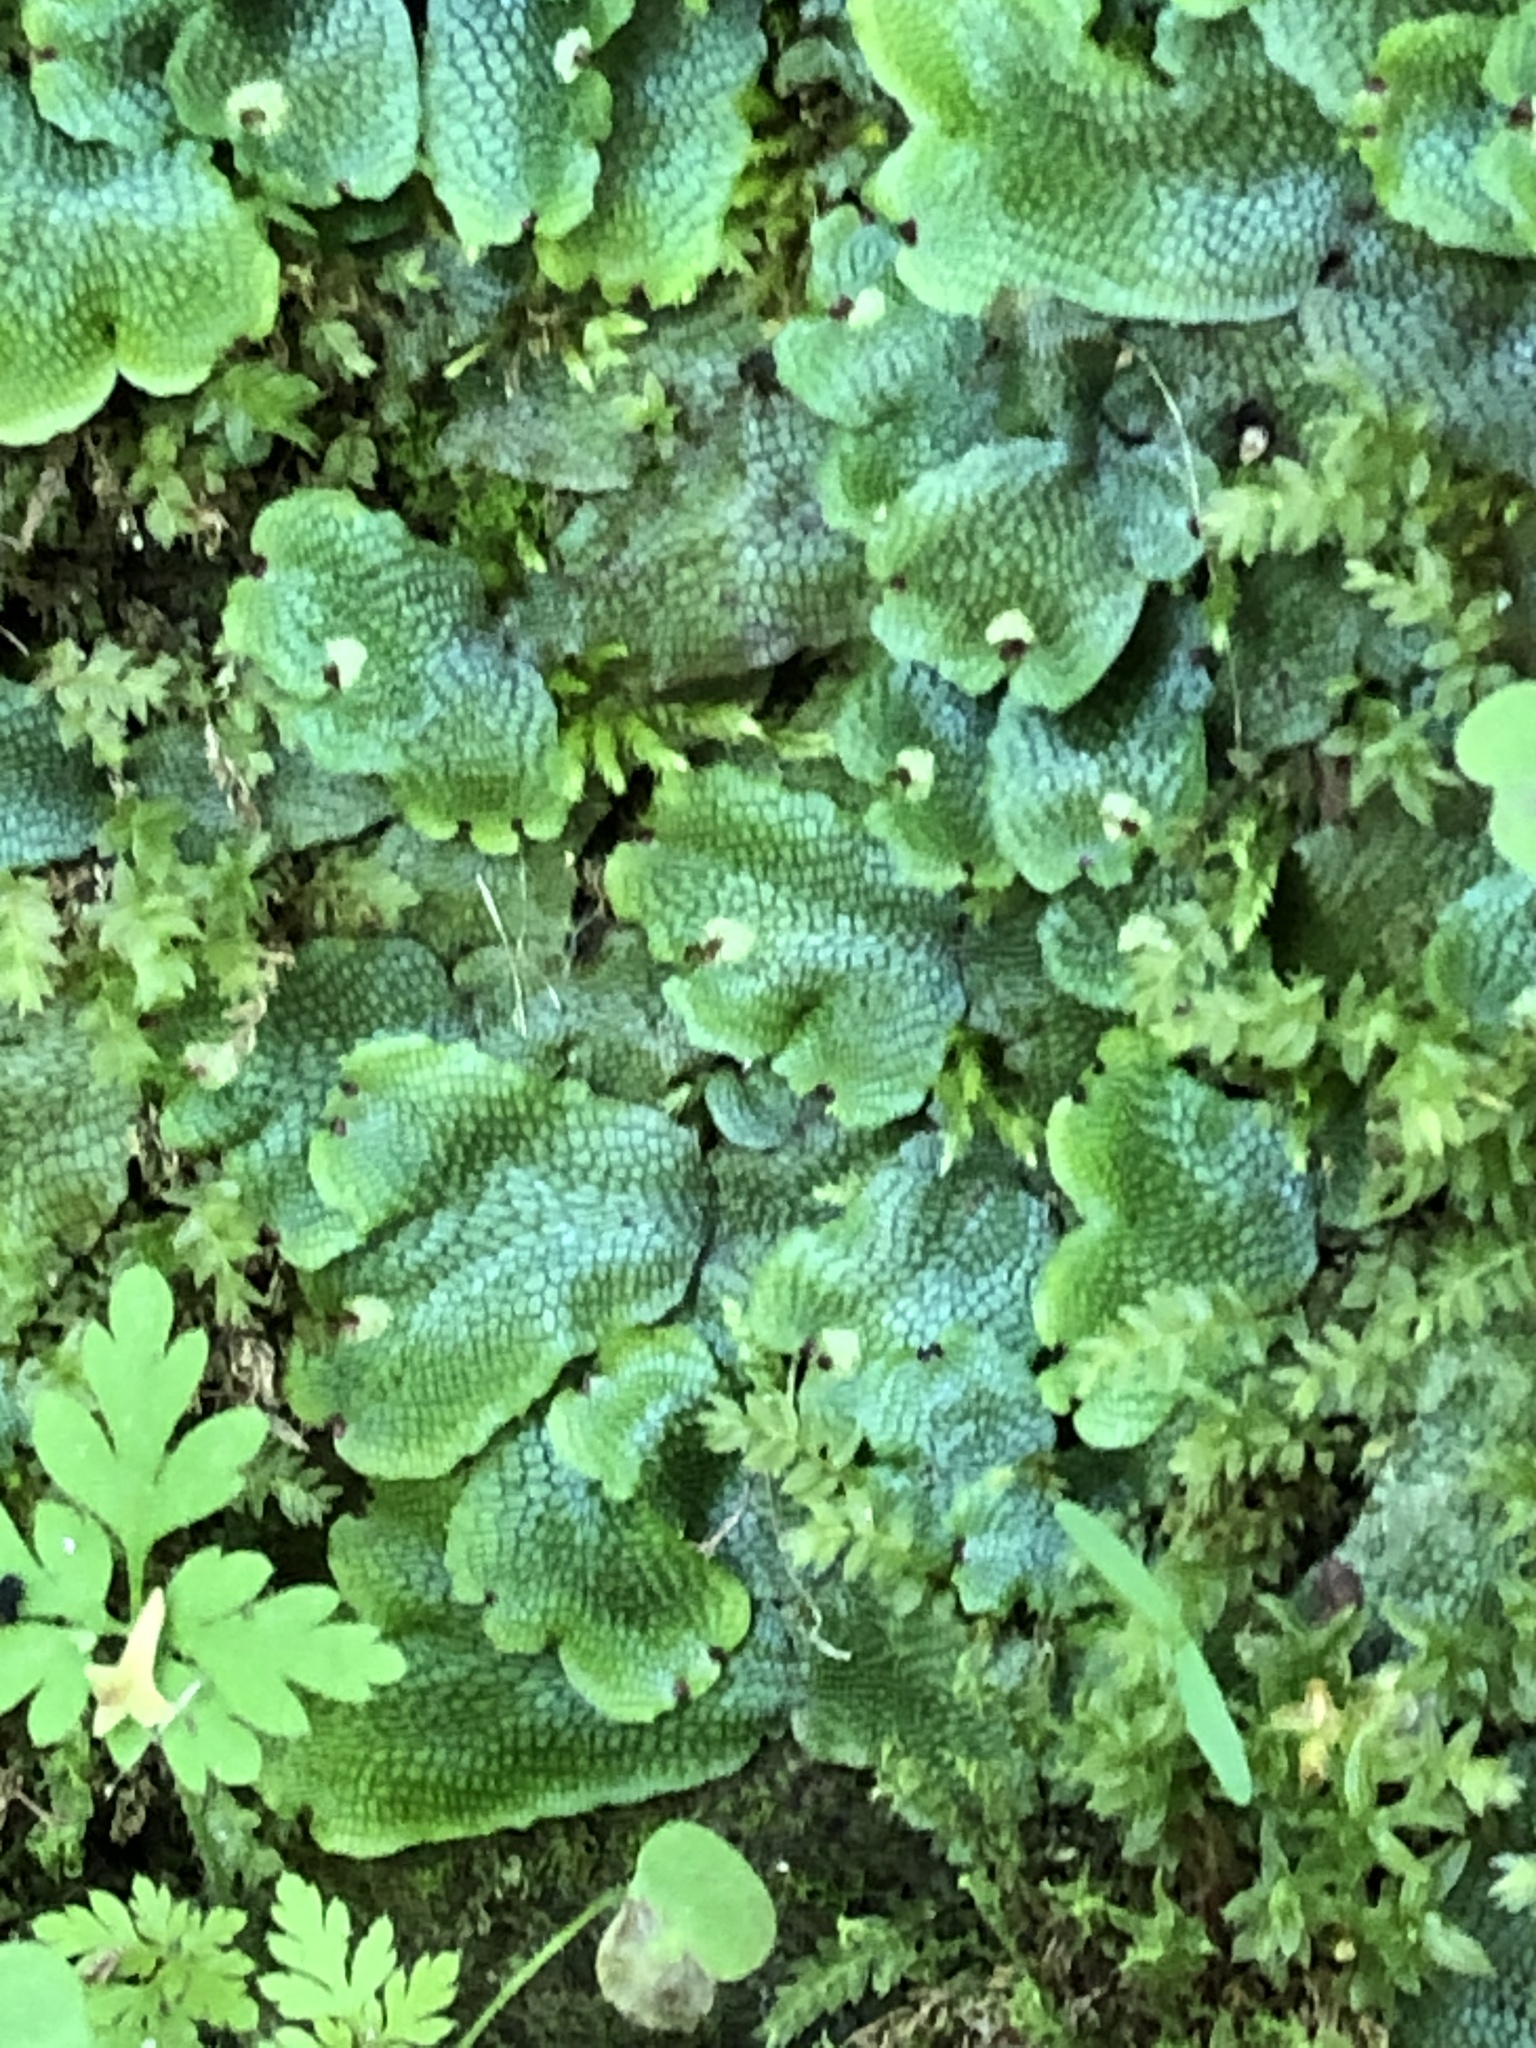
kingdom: Plantae
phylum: Marchantiophyta
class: Marchantiopsida
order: Marchantiales
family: Conocephalaceae
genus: Conocephalum
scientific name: Conocephalum salebrosum
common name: Cat-tongue liverwort
